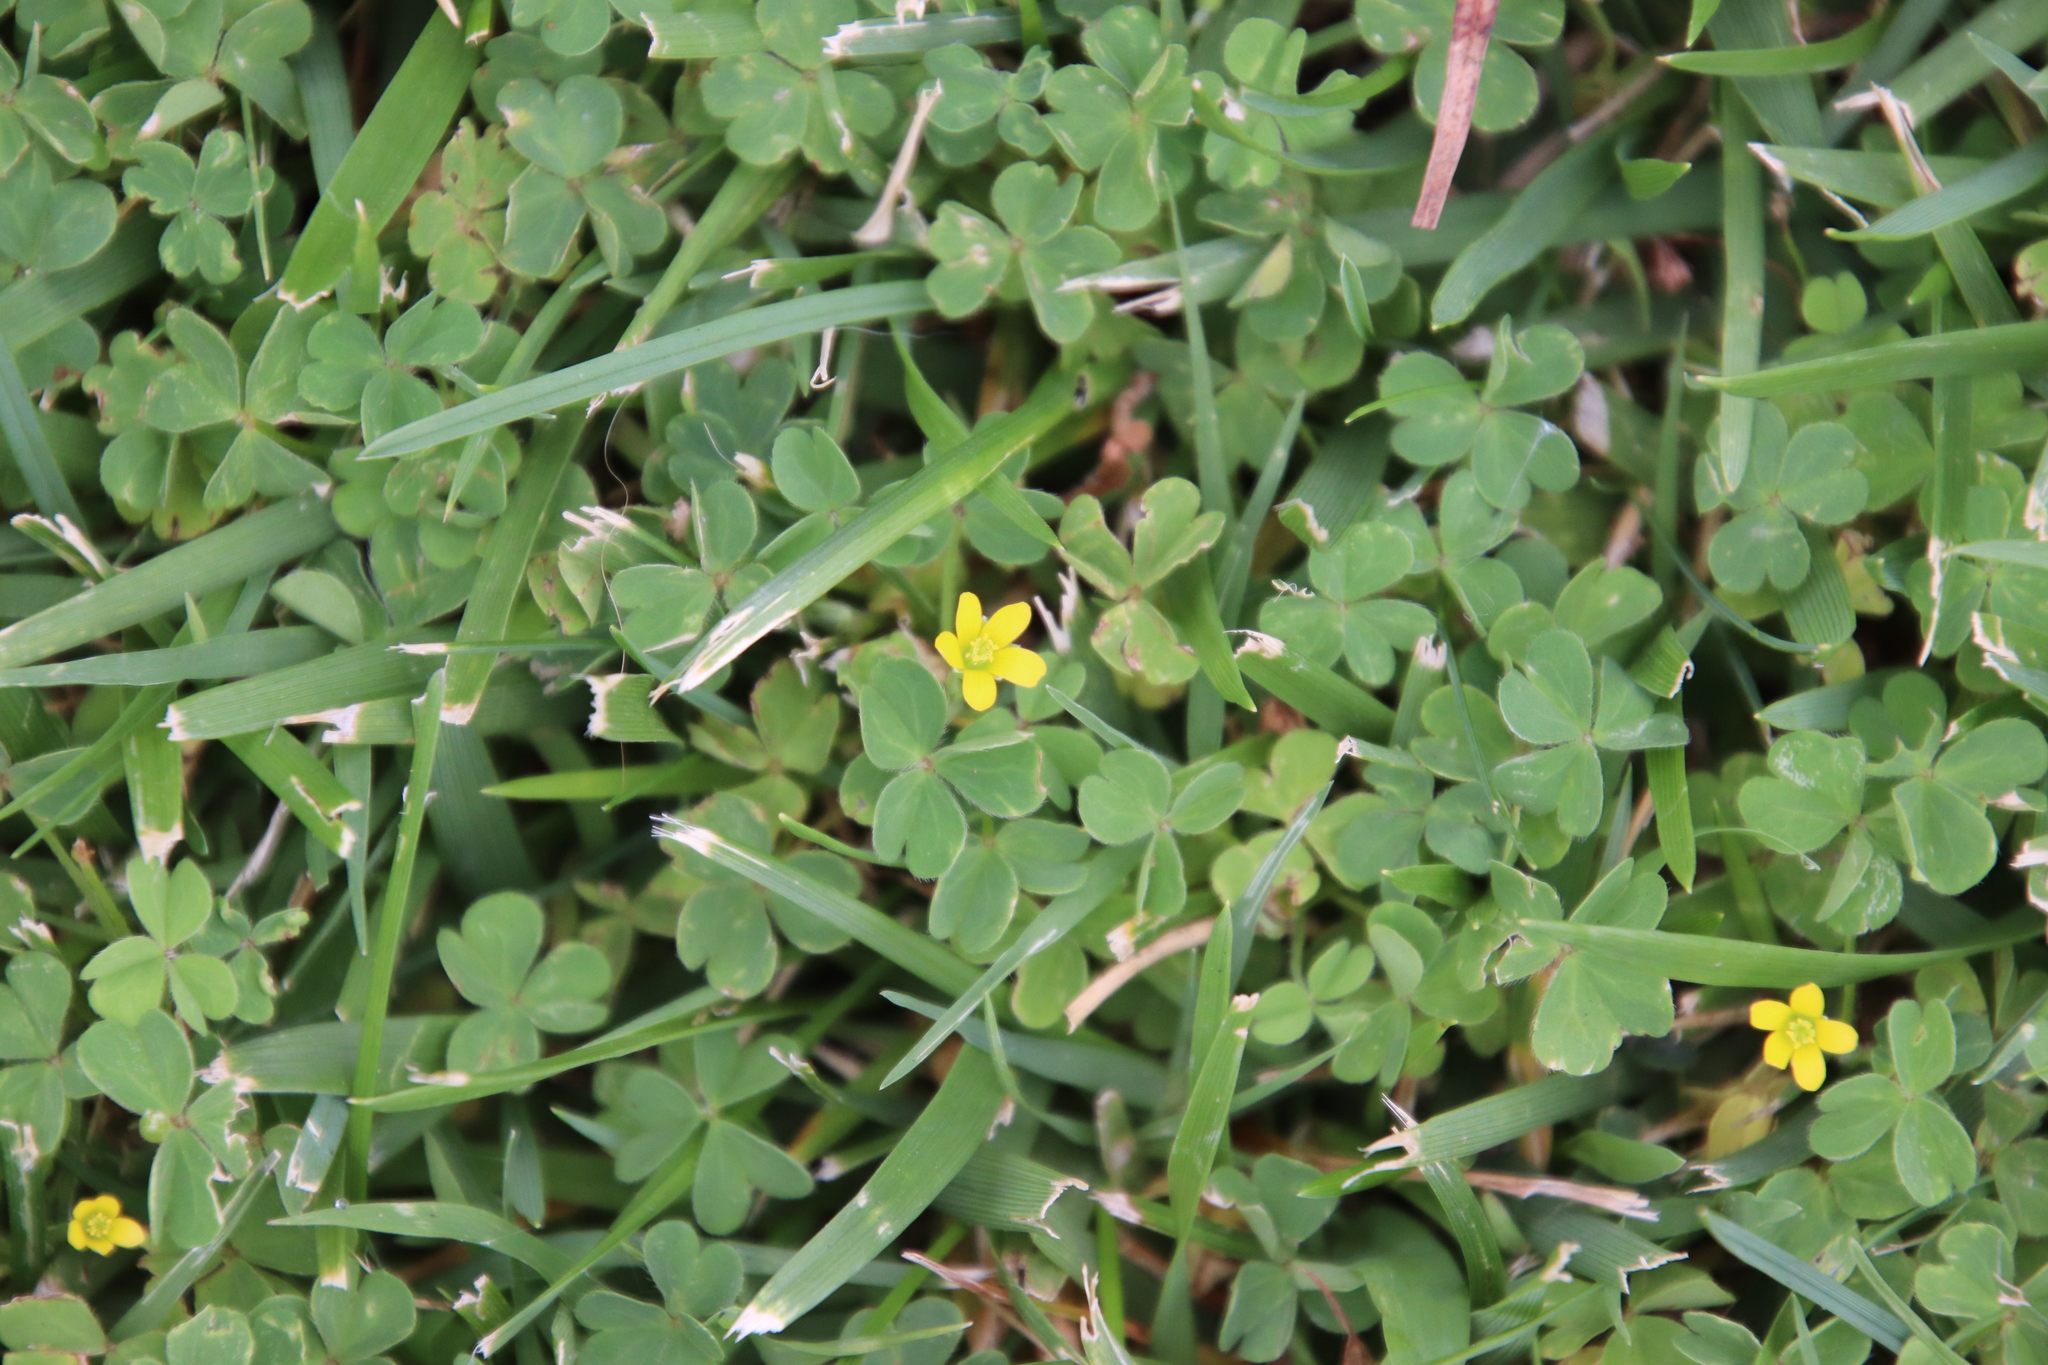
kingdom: Plantae
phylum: Tracheophyta
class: Magnoliopsida
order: Oxalidales
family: Oxalidaceae
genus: Oxalis
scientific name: Oxalis corniculata
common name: Procumbent yellow-sorrel
